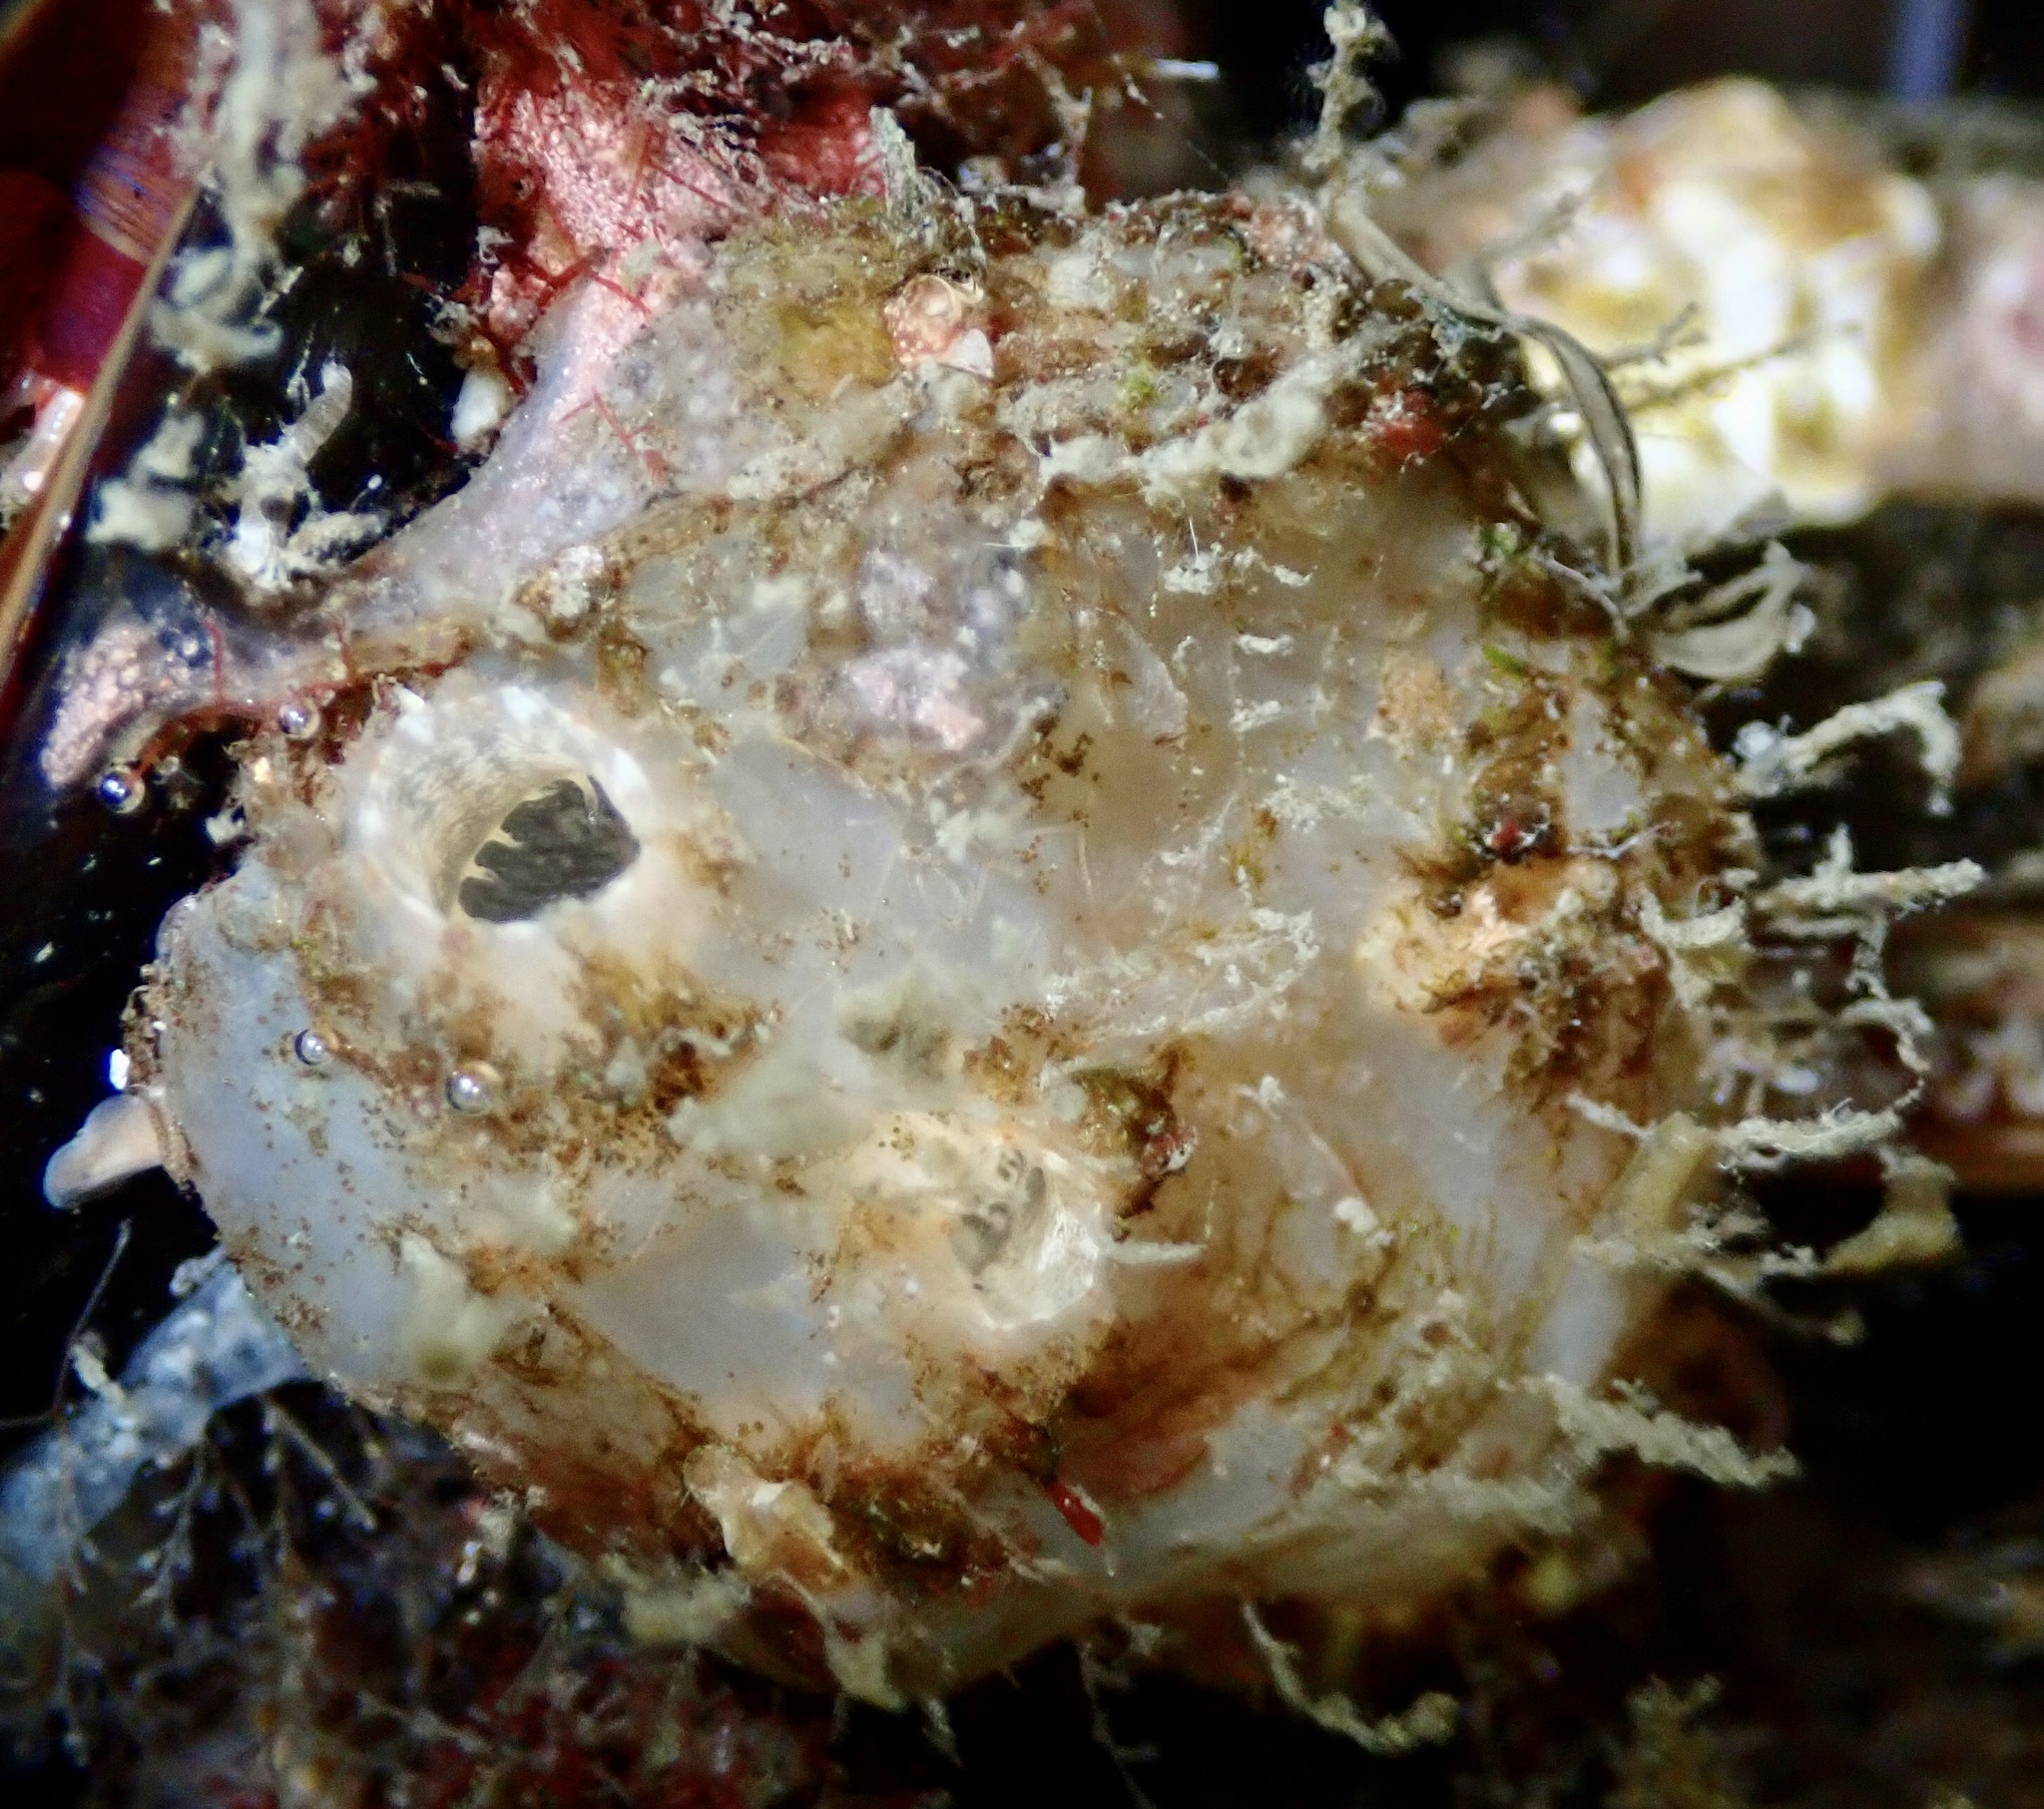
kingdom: Animalia
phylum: Chordata
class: Ascidiacea
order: Phlebobranchia
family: Ascidiidae
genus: Ascidiella
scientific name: Ascidiella aspersa
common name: Dirty sea-squirt
